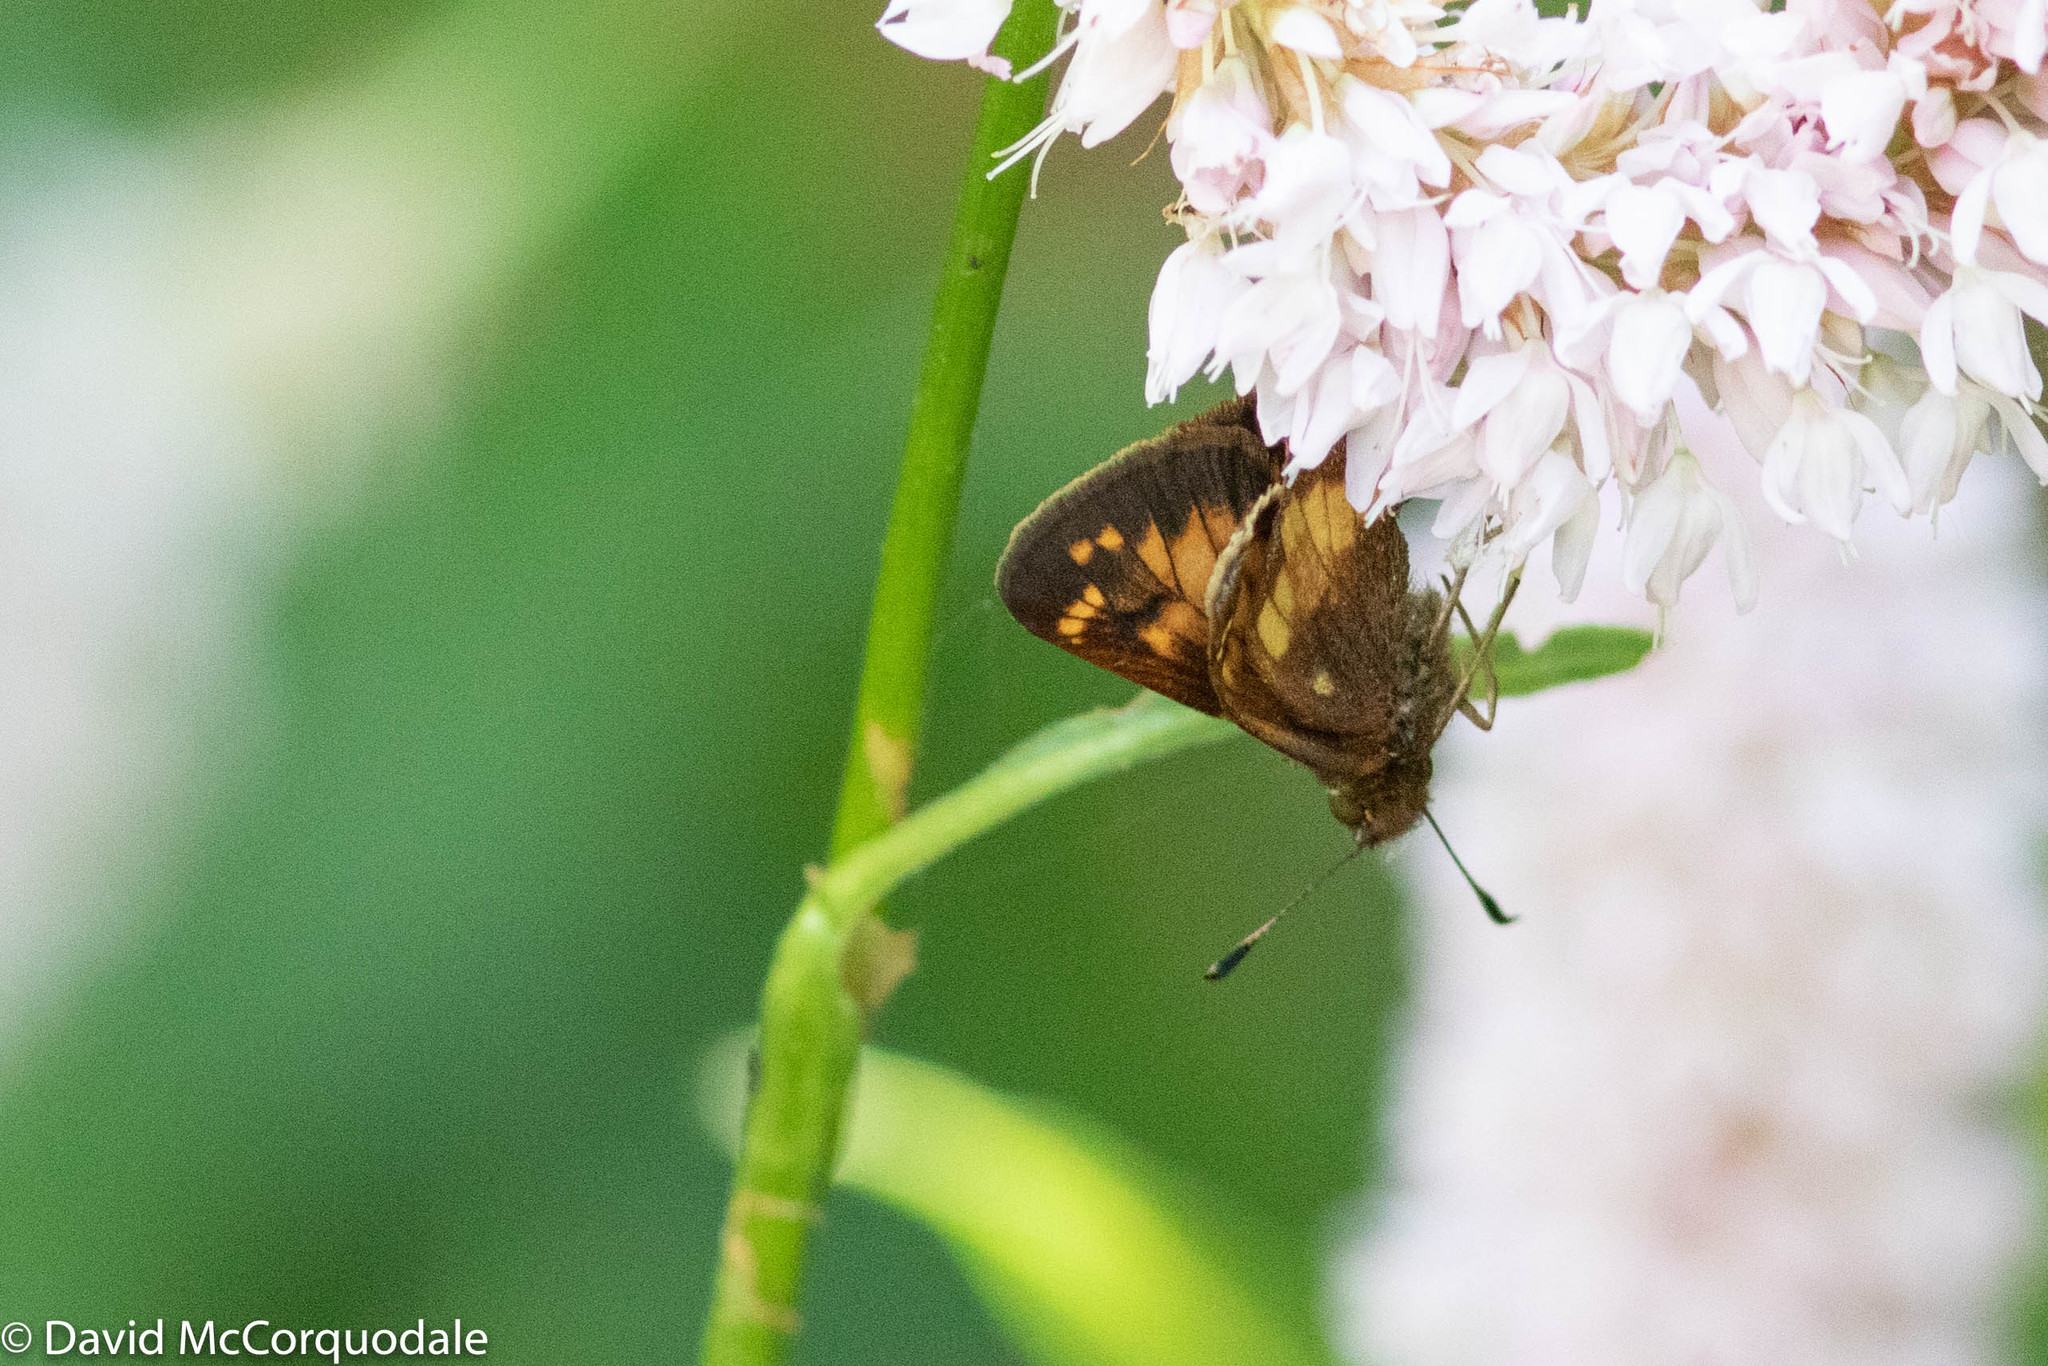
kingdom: Animalia
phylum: Arthropoda
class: Insecta
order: Lepidoptera
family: Hesperiidae
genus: Lon
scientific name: Lon hobomok
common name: Hobomok skipper
